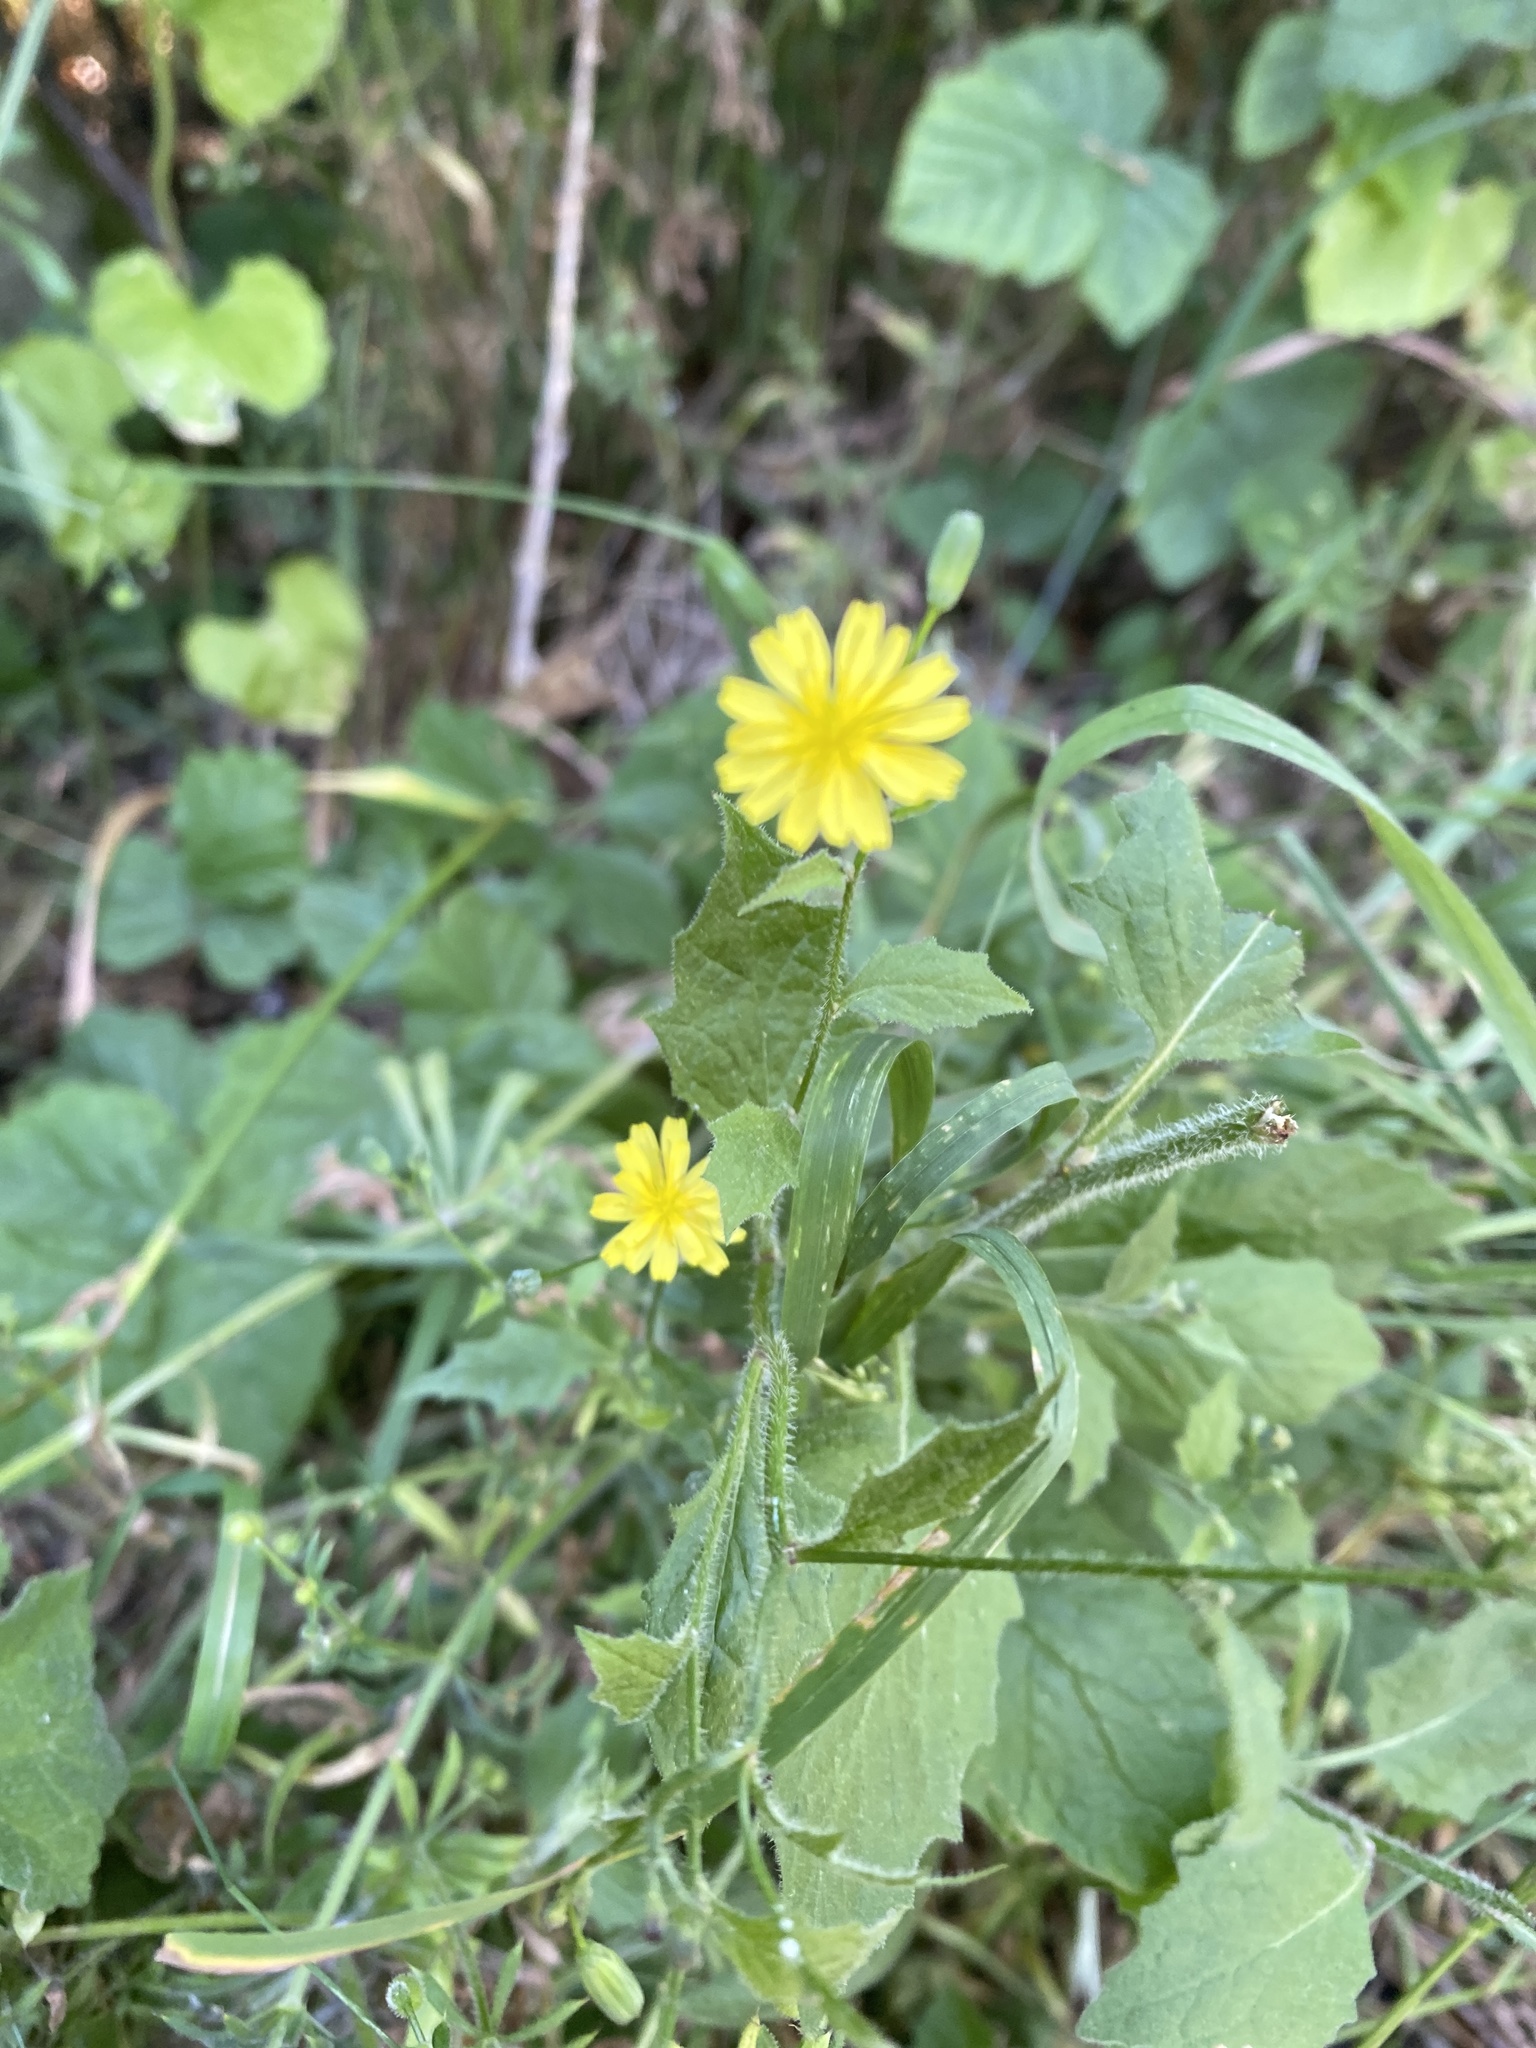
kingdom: Plantae
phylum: Tracheophyta
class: Magnoliopsida
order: Asterales
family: Asteraceae
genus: Lapsana
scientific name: Lapsana communis
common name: Nipplewort
